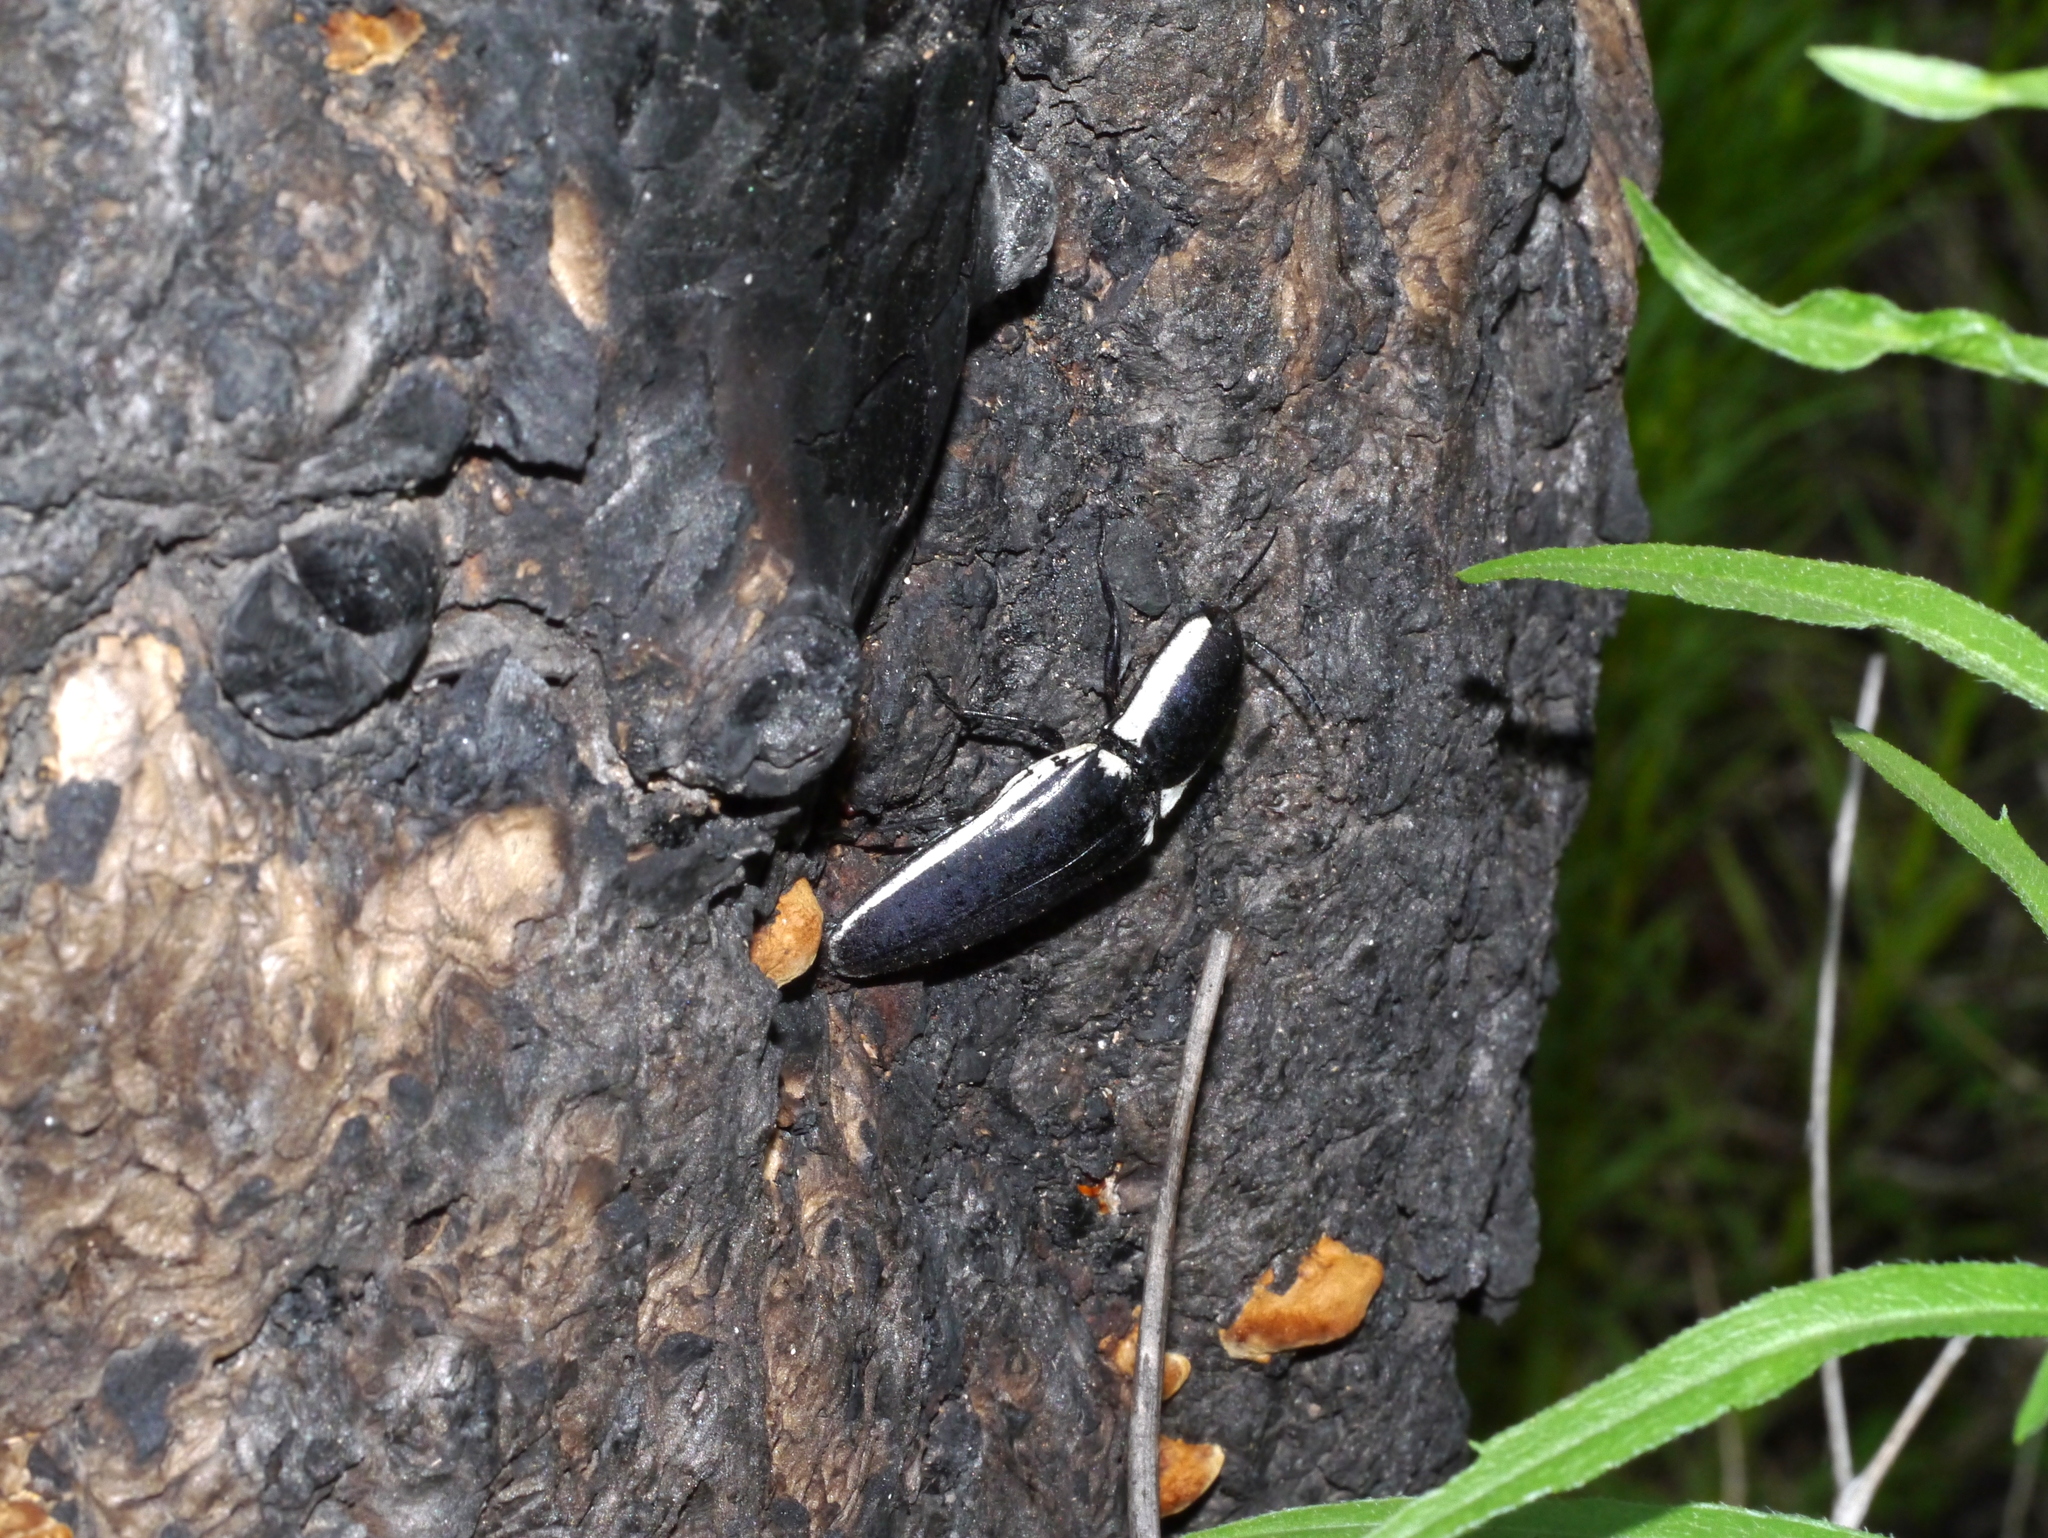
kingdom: Animalia
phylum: Arthropoda
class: Insecta
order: Coleoptera
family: Elateridae
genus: Chalcolepidius
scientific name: Chalcolepidius
